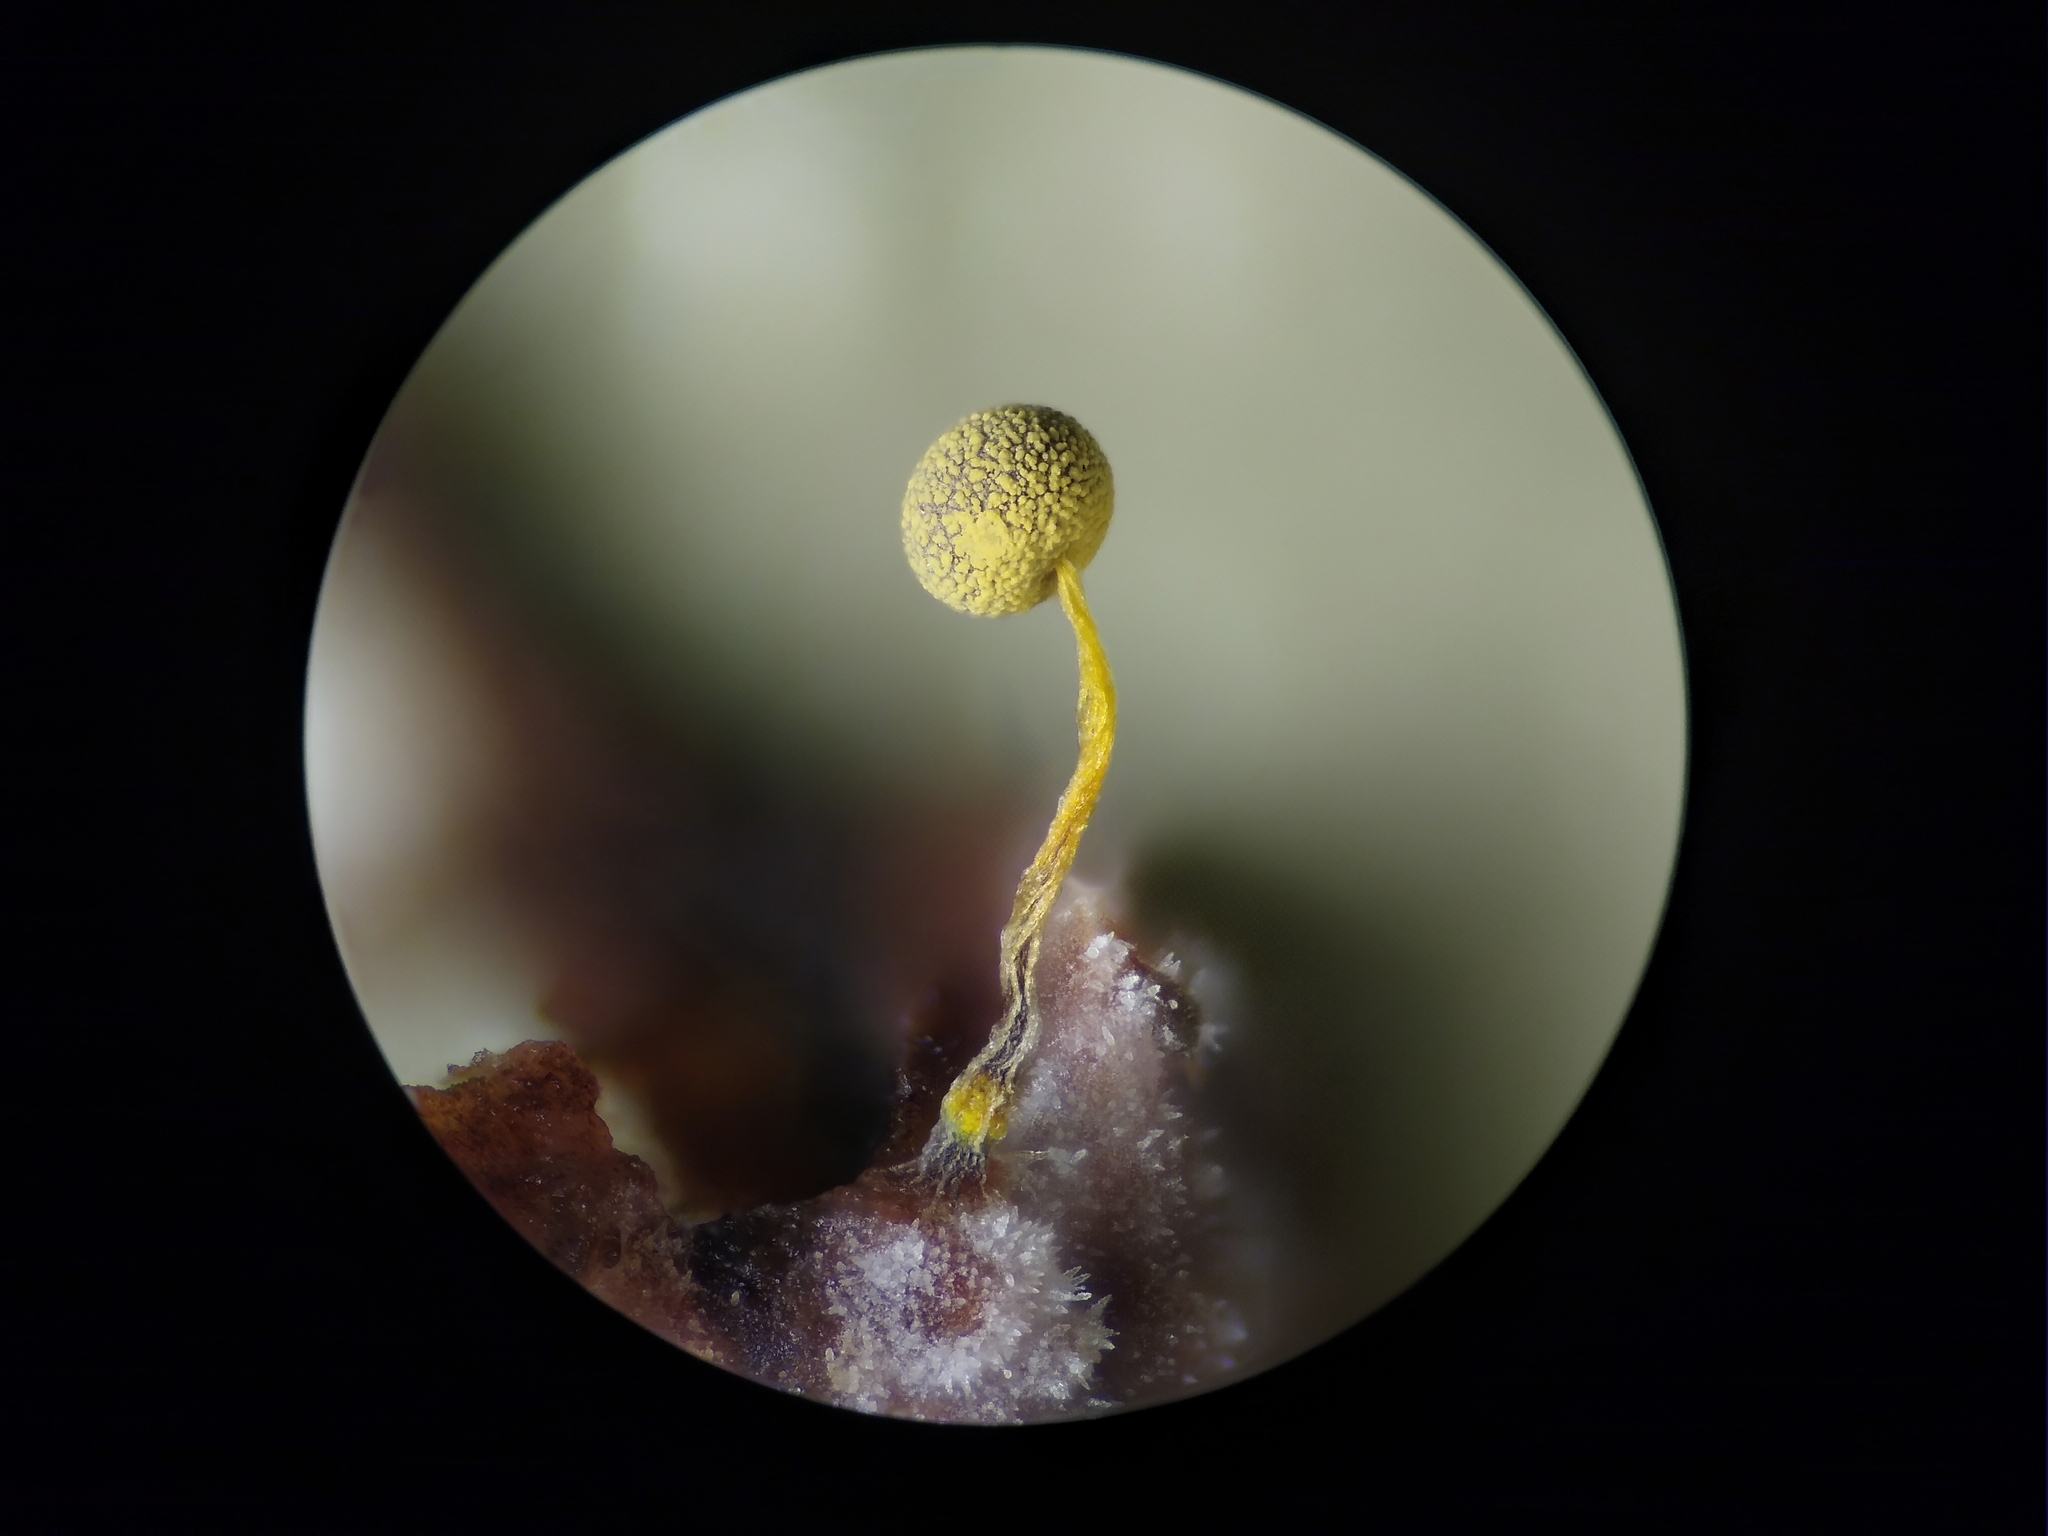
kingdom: Protozoa
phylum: Mycetozoa
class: Myxomycetes
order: Physarales
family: Physaraceae
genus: Physarum
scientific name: Physarum viride
